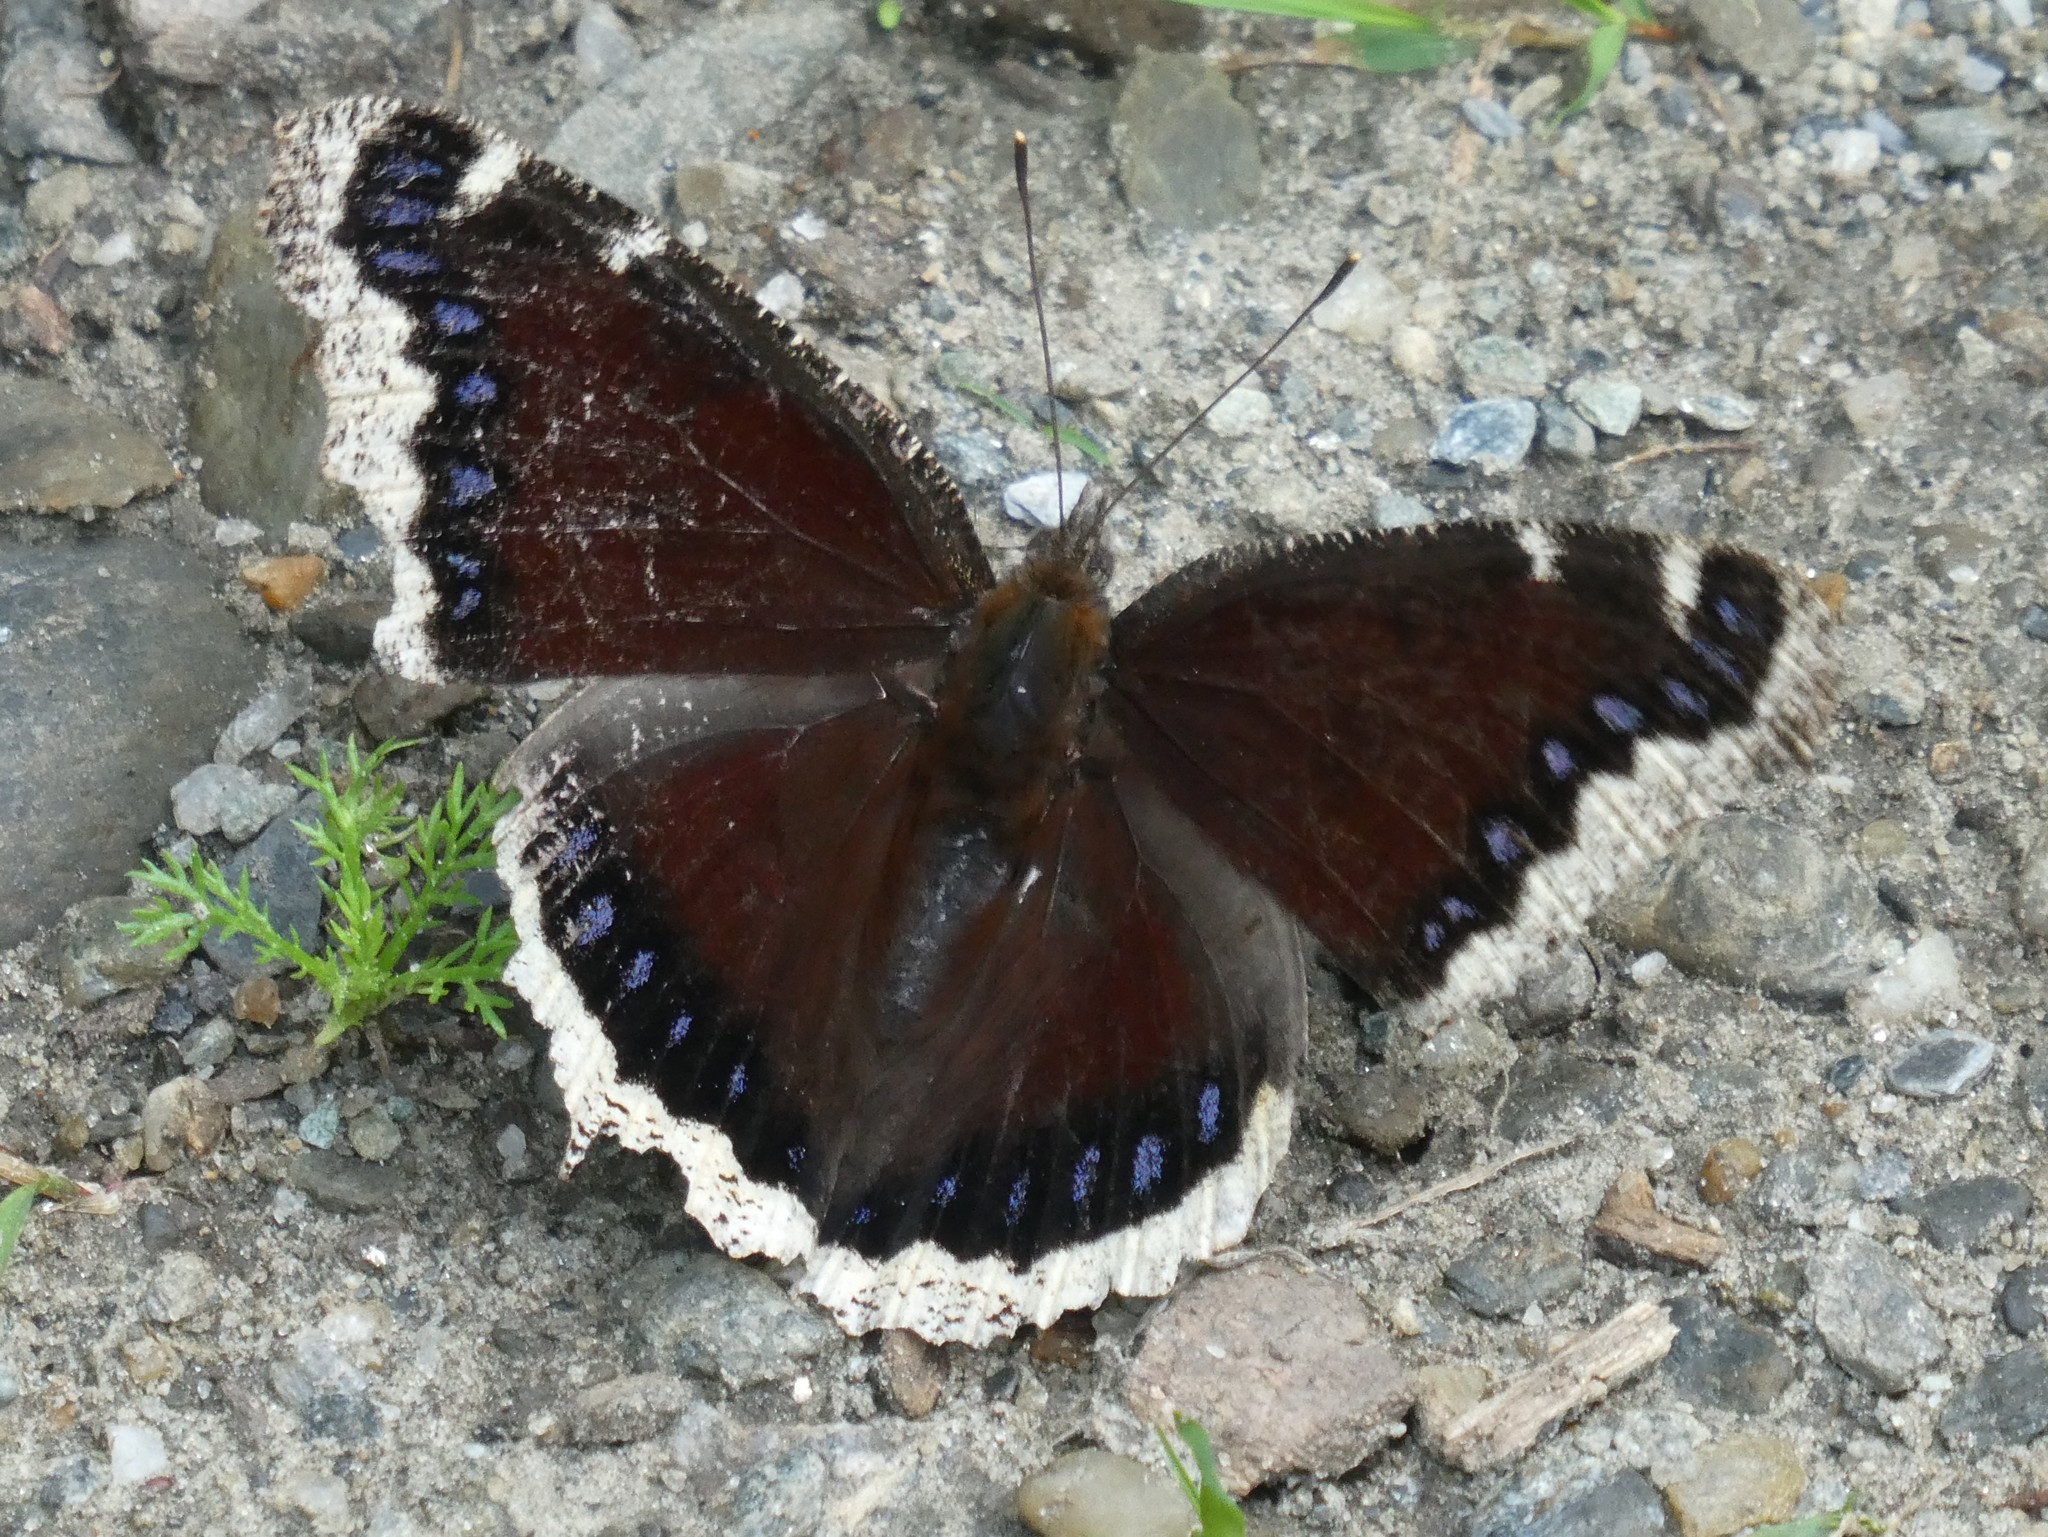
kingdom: Animalia
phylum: Arthropoda
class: Insecta
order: Lepidoptera
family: Nymphalidae
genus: Nymphalis
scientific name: Nymphalis antiopa
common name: Camberwell beauty
